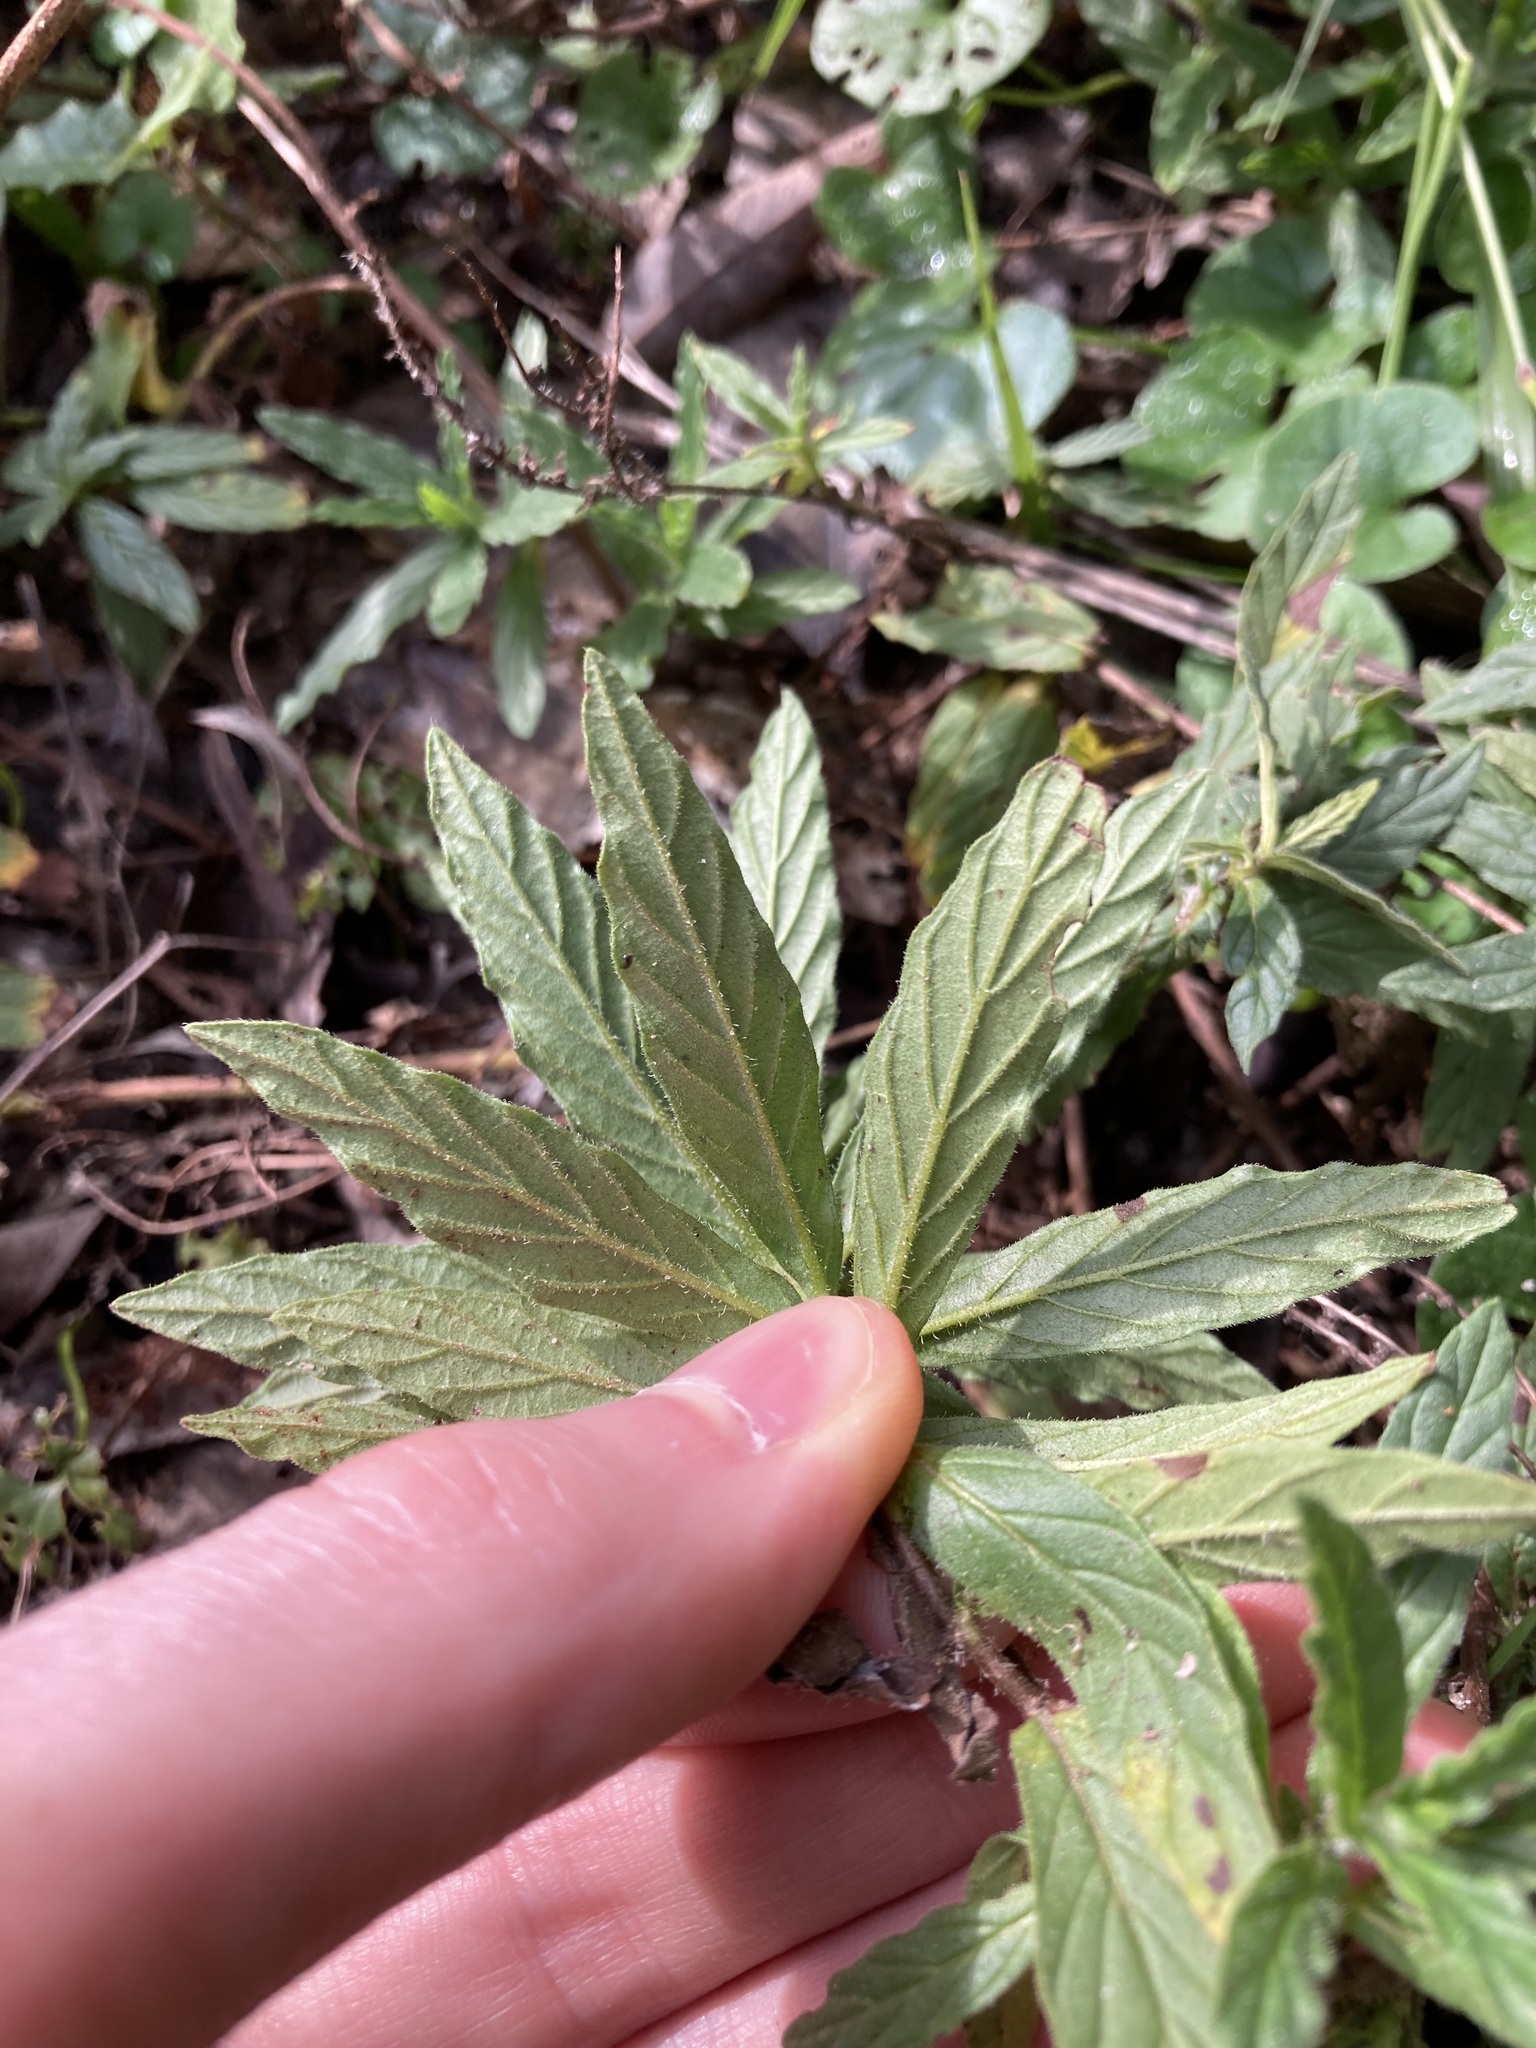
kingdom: Plantae
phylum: Tracheophyta
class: Magnoliopsida
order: Boraginales
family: Heliotropiaceae
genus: Heliotropium
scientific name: Heliotropium amplexicaule
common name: Clasping heliotrope
